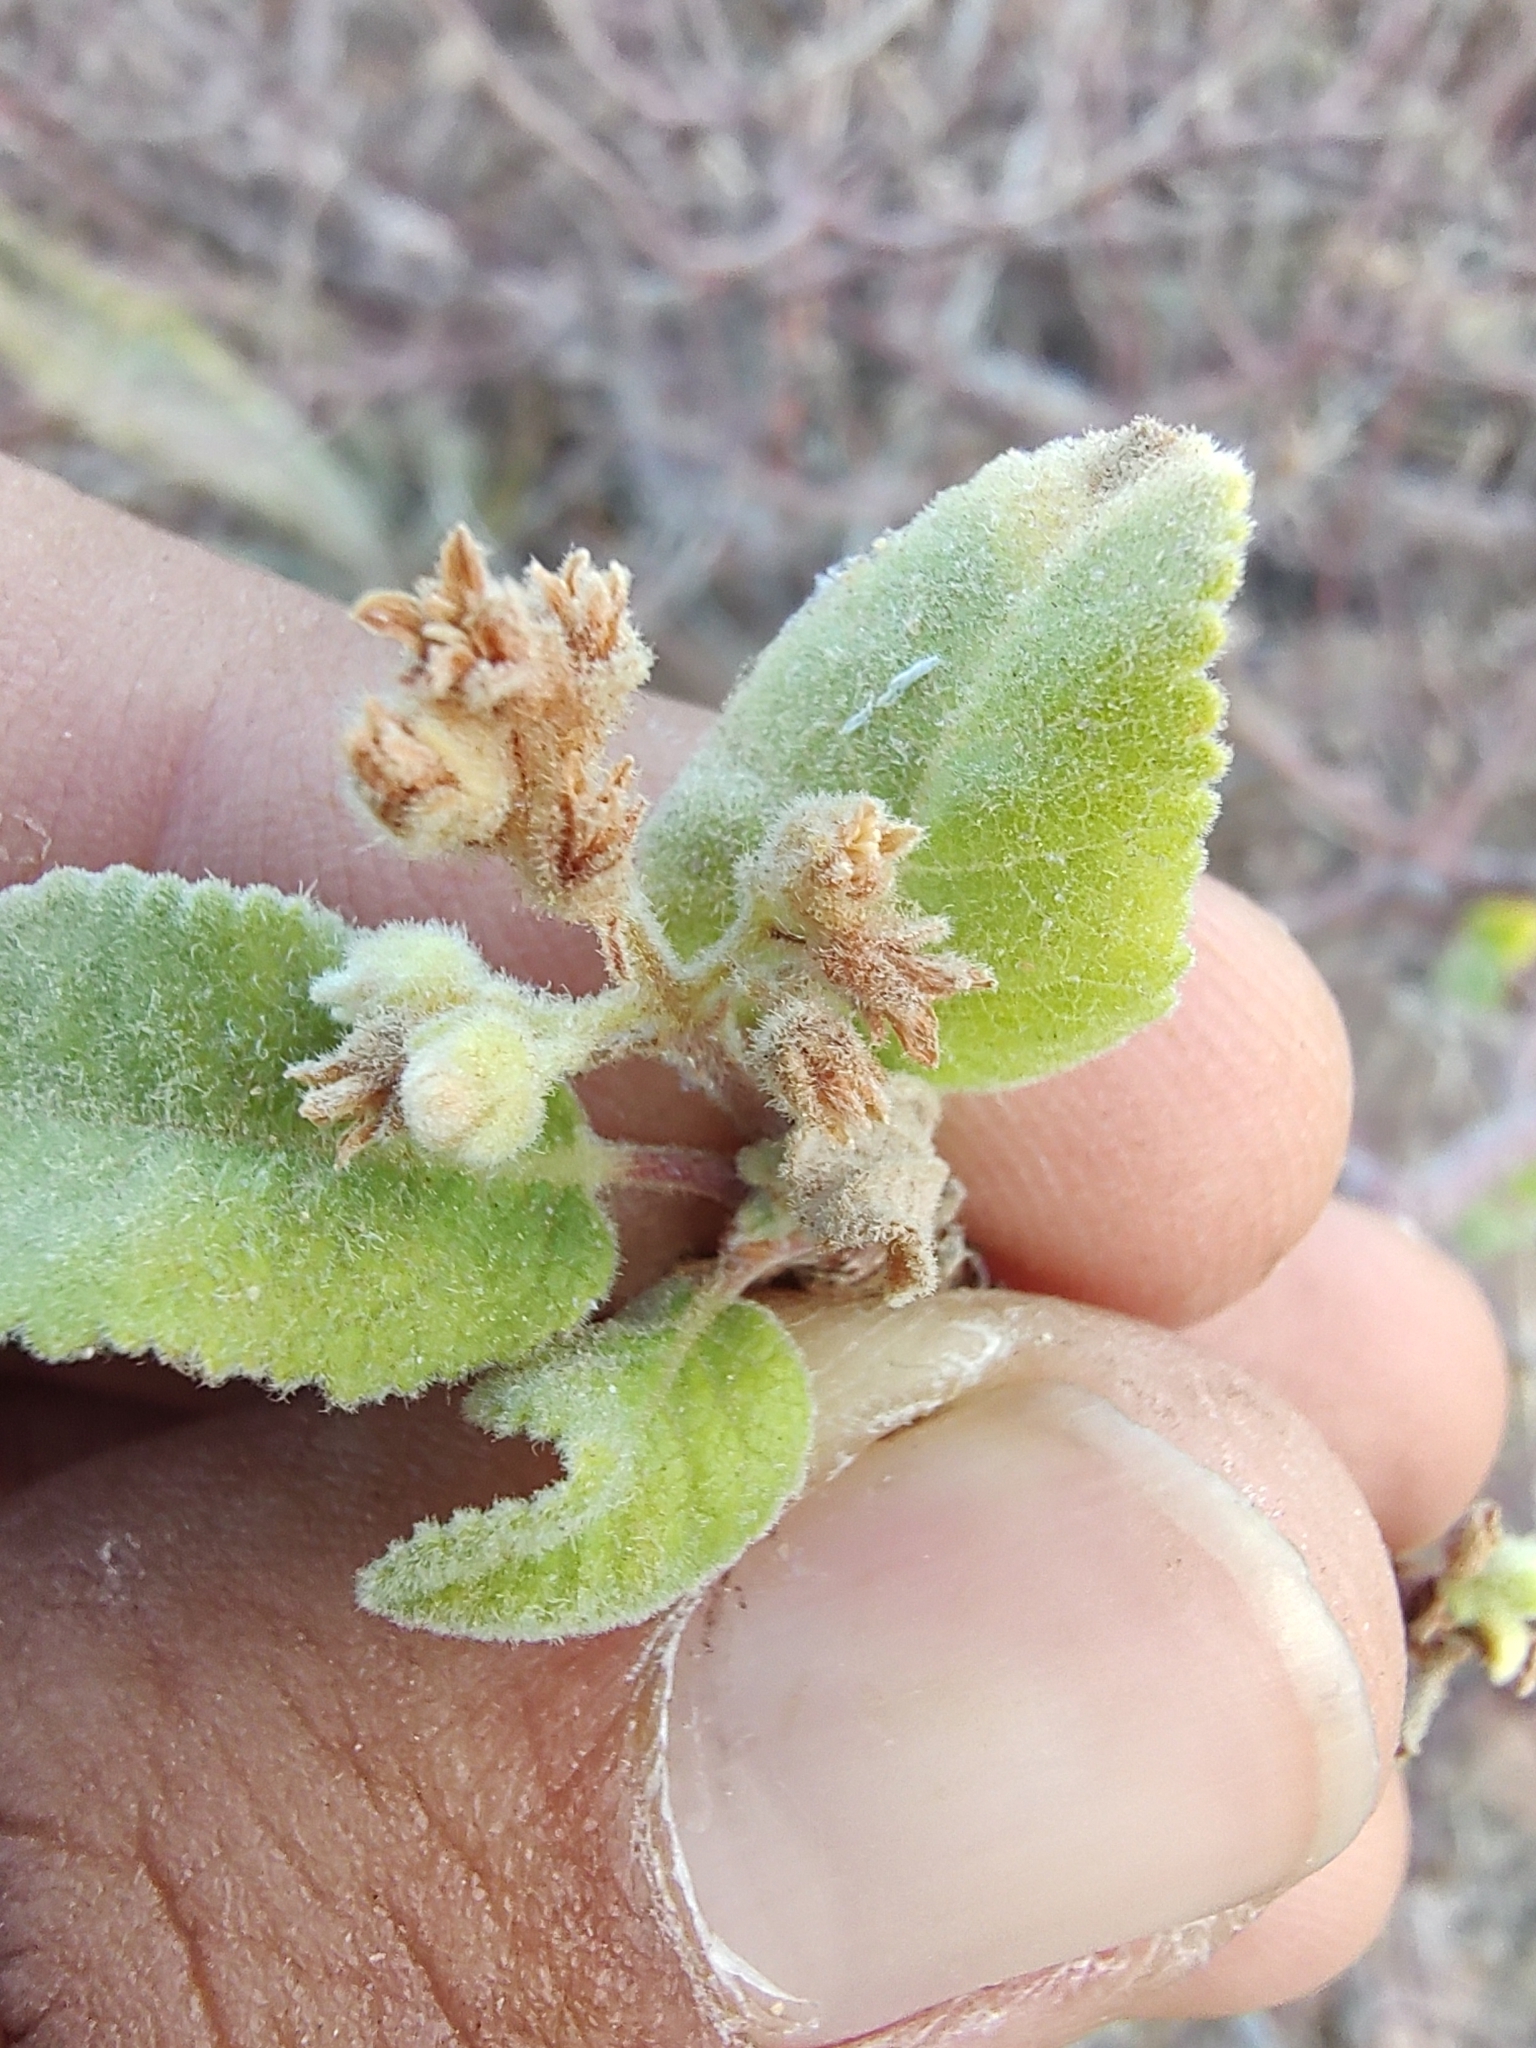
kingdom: Plantae
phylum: Tracheophyta
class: Magnoliopsida
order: Sapindales
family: Burseraceae
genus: Bursera
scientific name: Bursera hindsiana
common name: Red elephant tree
